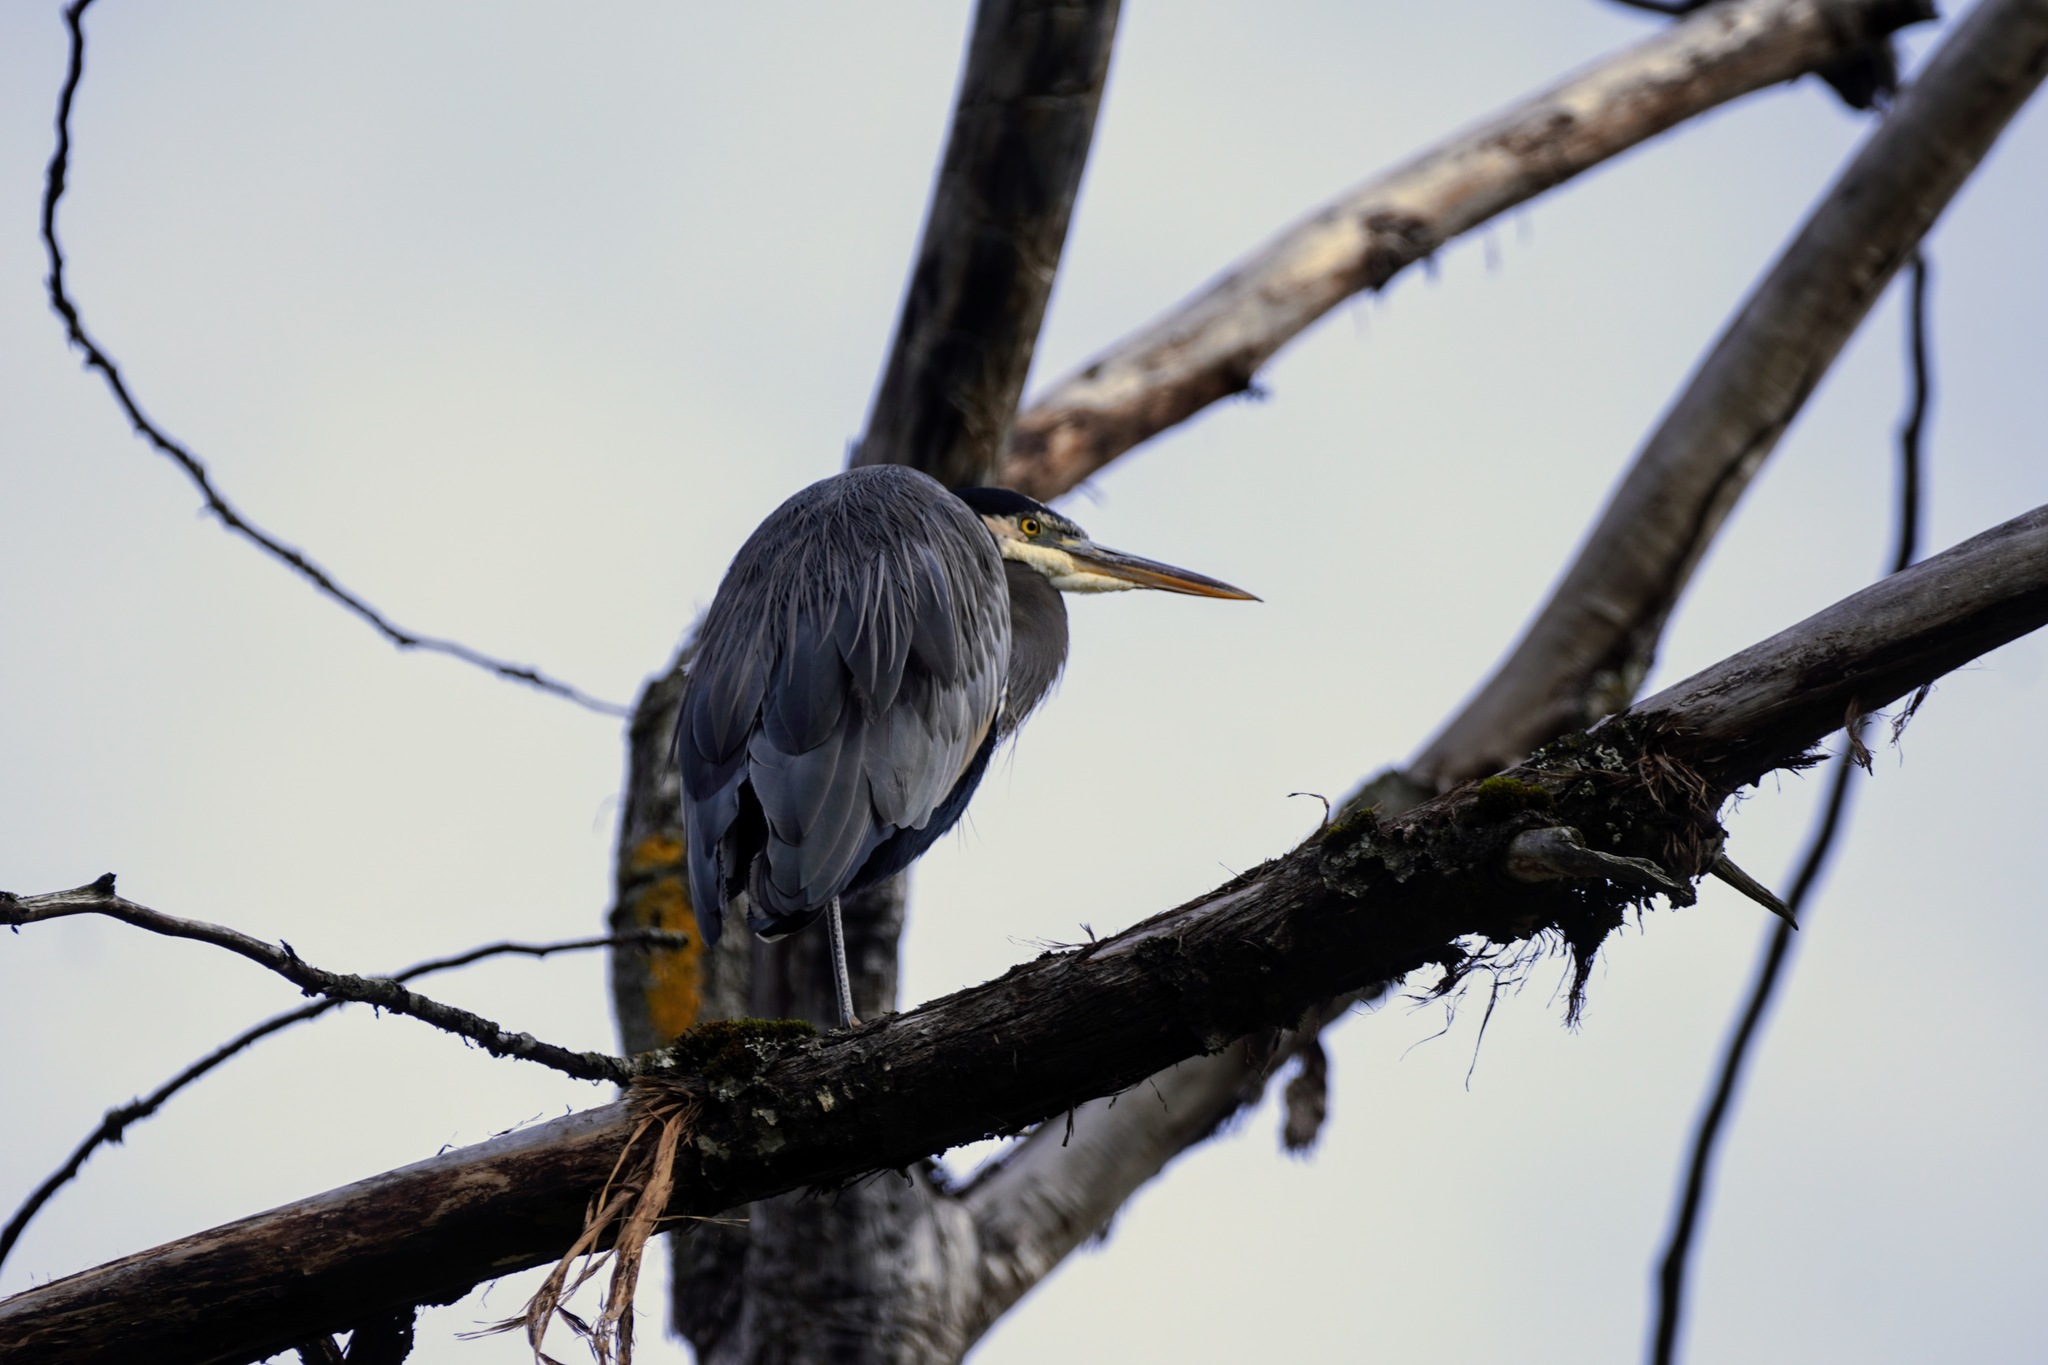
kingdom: Animalia
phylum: Chordata
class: Aves
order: Pelecaniformes
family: Ardeidae
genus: Ardea
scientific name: Ardea herodias
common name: Great blue heron
